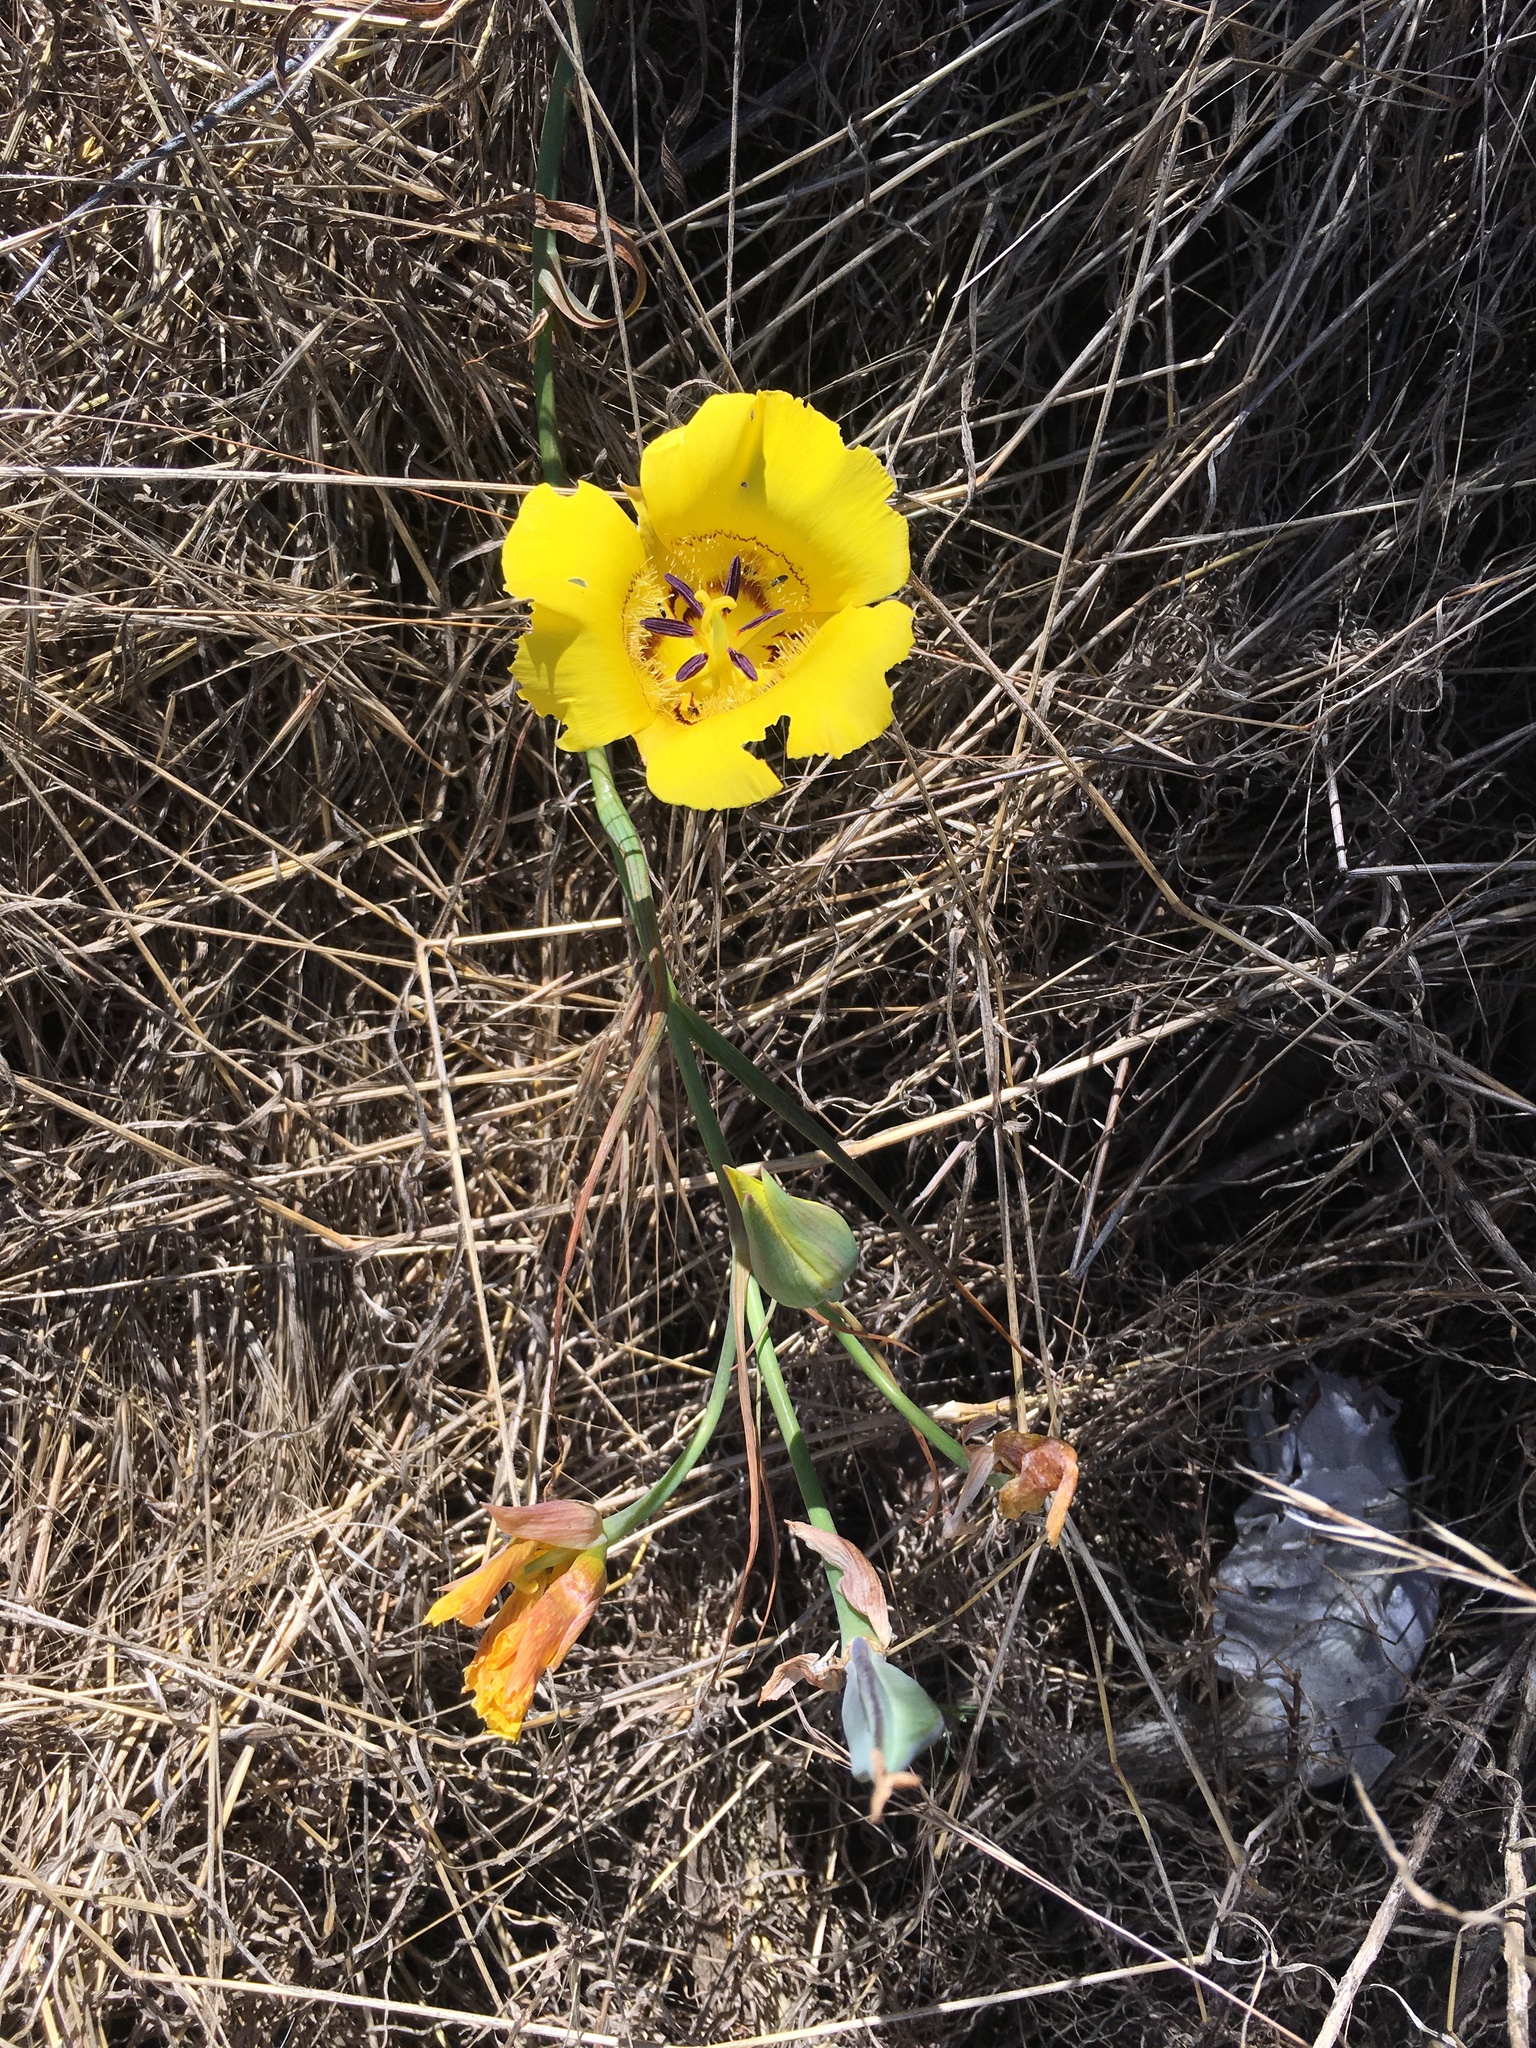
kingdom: Plantae
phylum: Tracheophyta
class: Liliopsida
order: Liliales
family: Liliaceae
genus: Calochortus
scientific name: Calochortus clavatus
